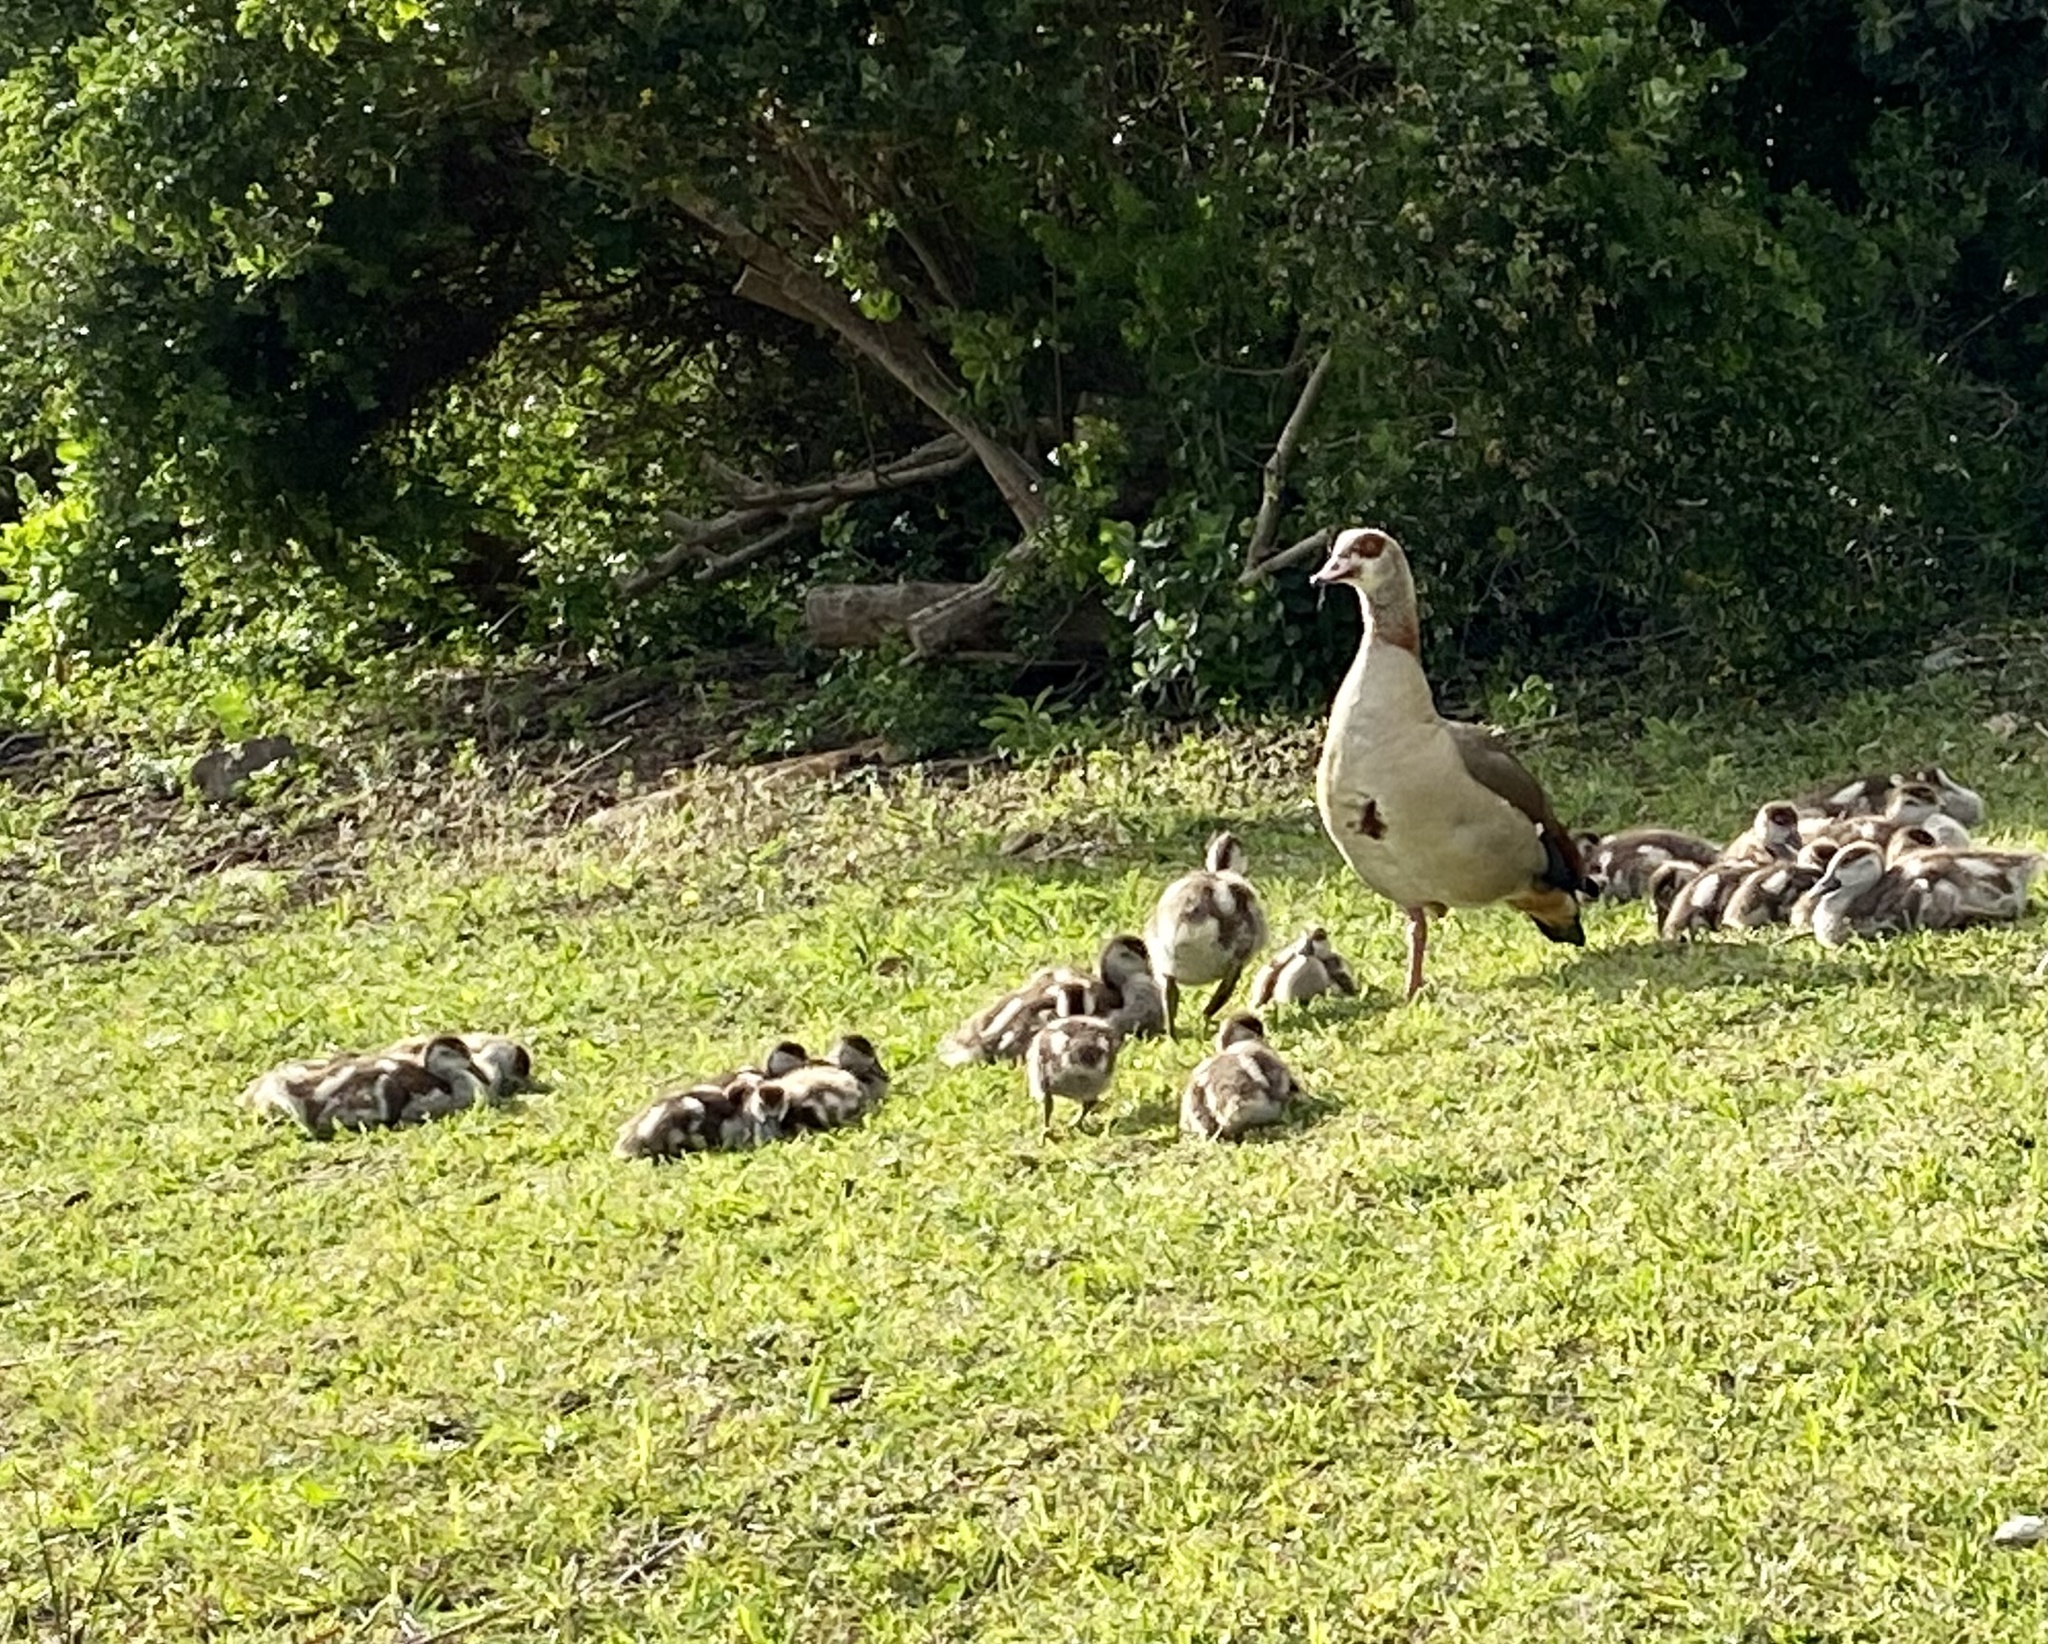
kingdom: Animalia
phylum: Chordata
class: Aves
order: Anseriformes
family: Anatidae
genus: Alopochen
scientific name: Alopochen aegyptiaca
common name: Egyptian goose
